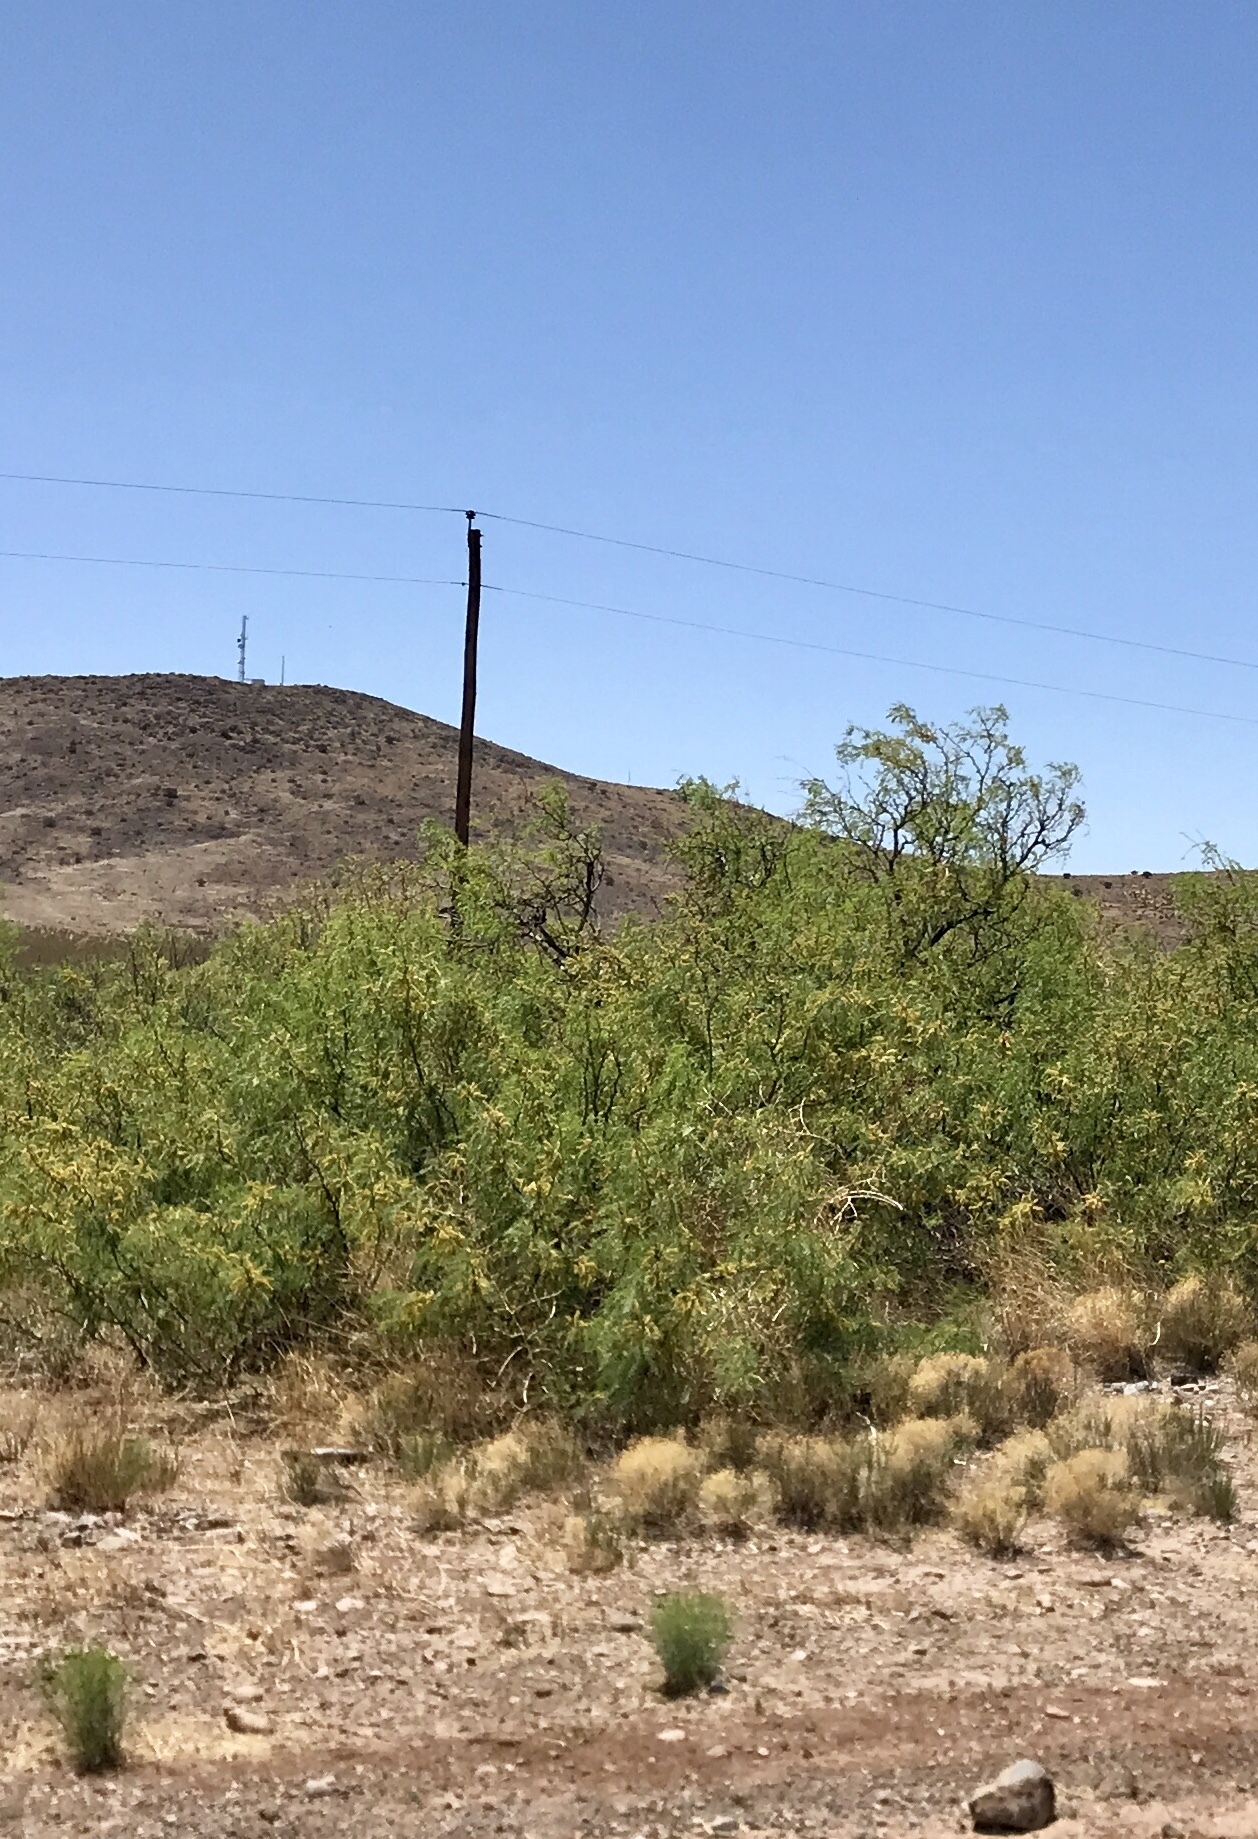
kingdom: Plantae
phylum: Tracheophyta
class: Magnoliopsida
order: Fabales
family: Fabaceae
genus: Prosopis
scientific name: Prosopis glandulosa
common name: Honey mesquite
